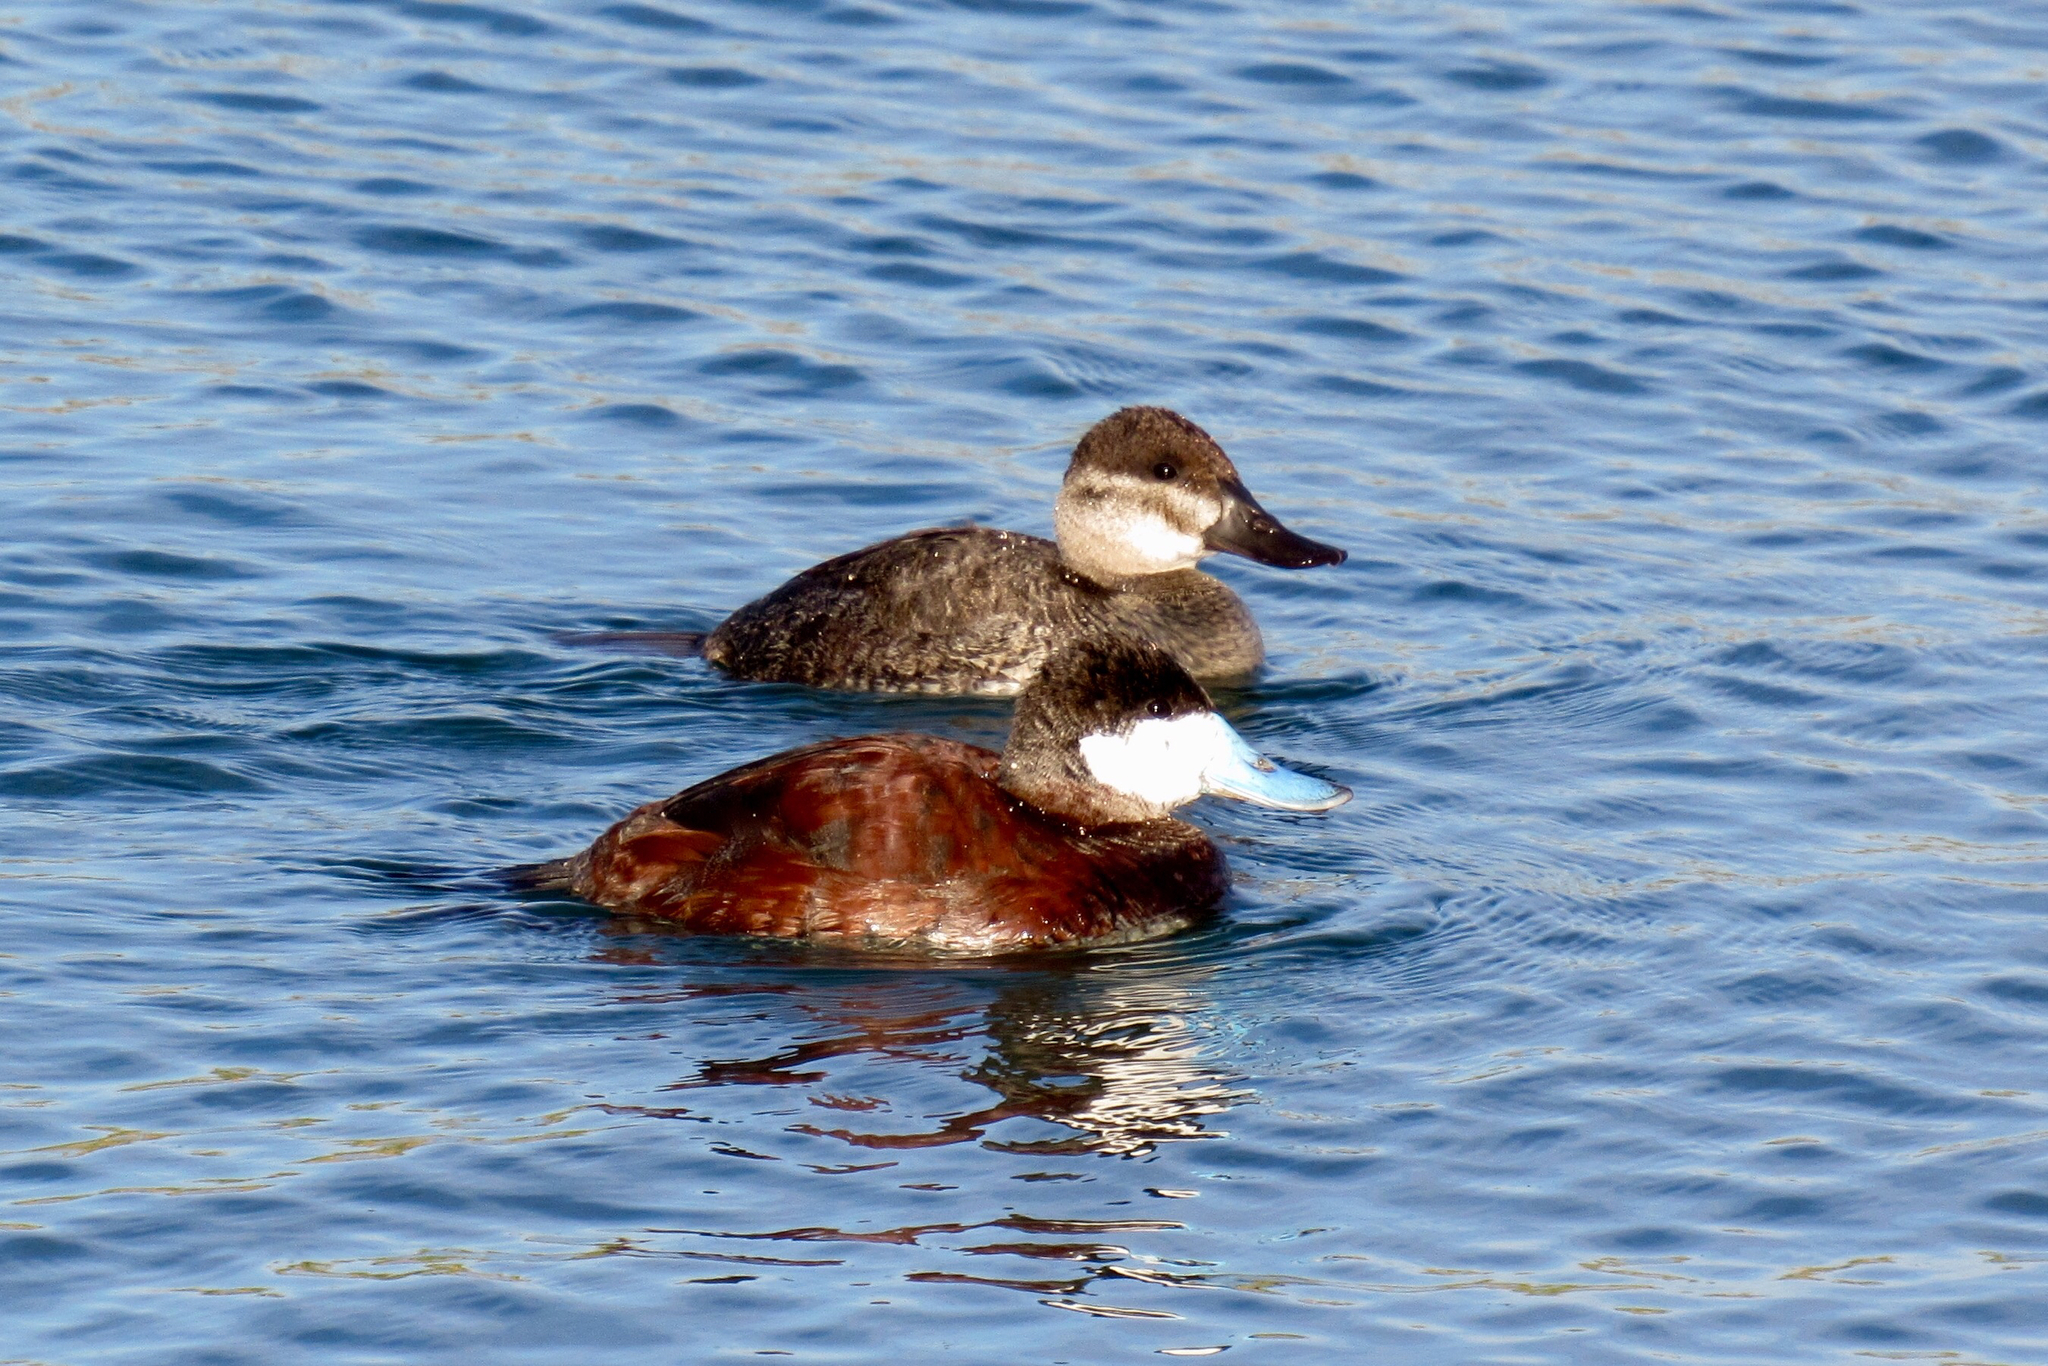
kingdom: Animalia
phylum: Chordata
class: Aves
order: Anseriformes
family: Anatidae
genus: Oxyura
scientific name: Oxyura jamaicensis
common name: Ruddy duck
